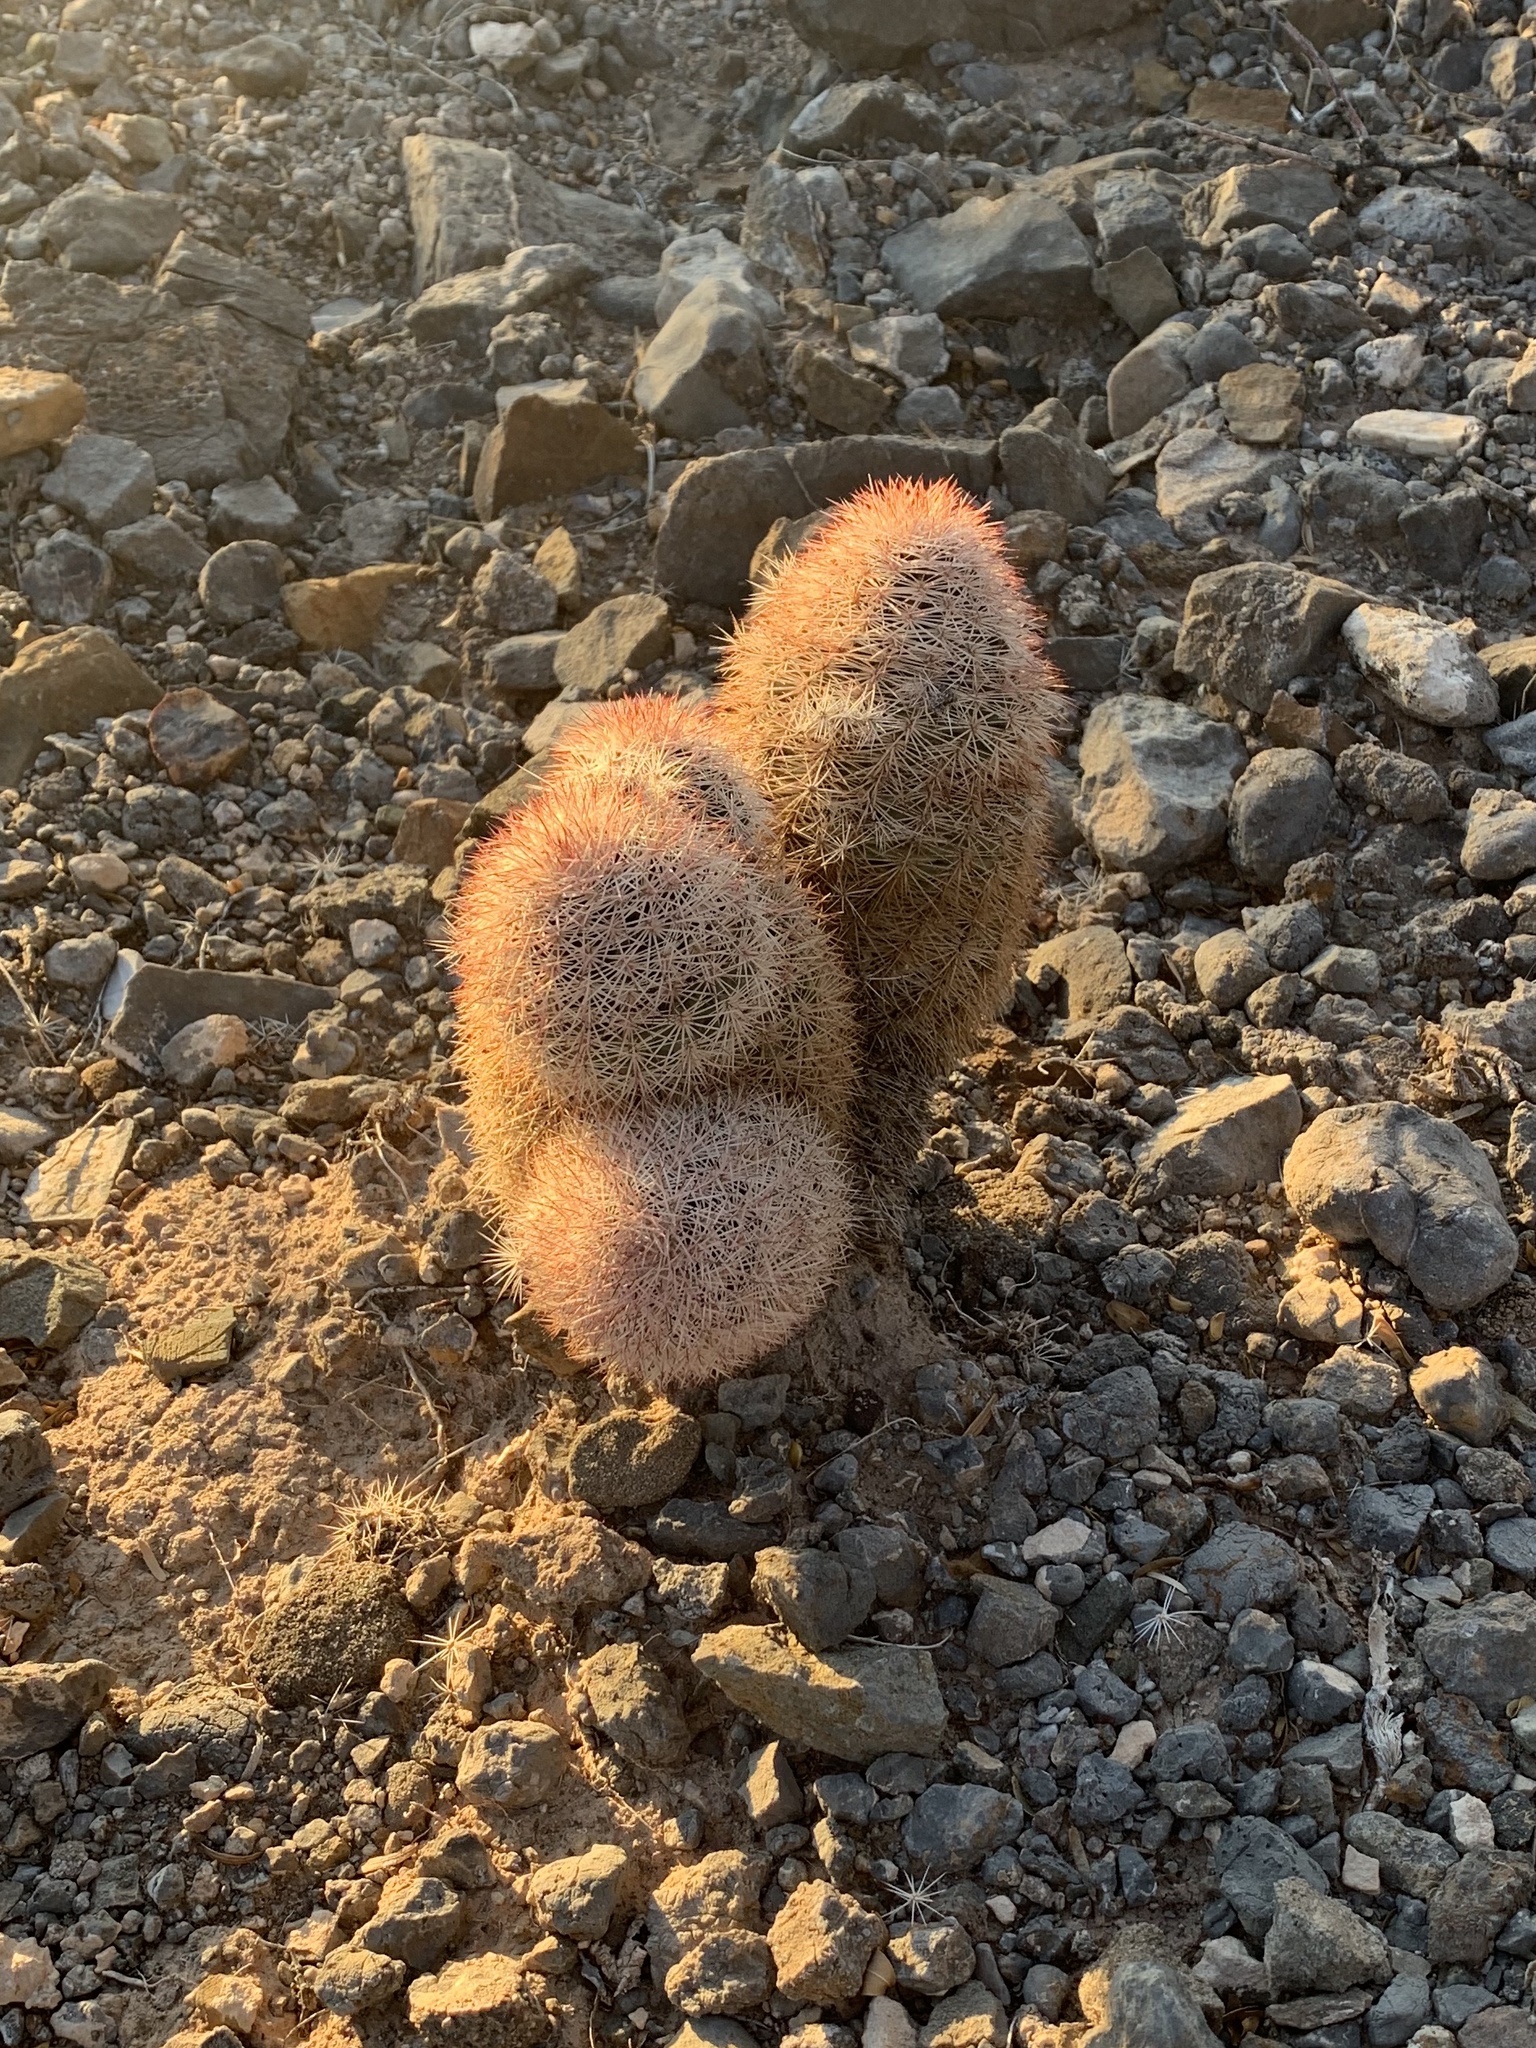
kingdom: Plantae
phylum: Tracheophyta
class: Magnoliopsida
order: Caryophyllales
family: Cactaceae
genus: Echinocereus
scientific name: Echinocereus dasyacanthus
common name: Spiny hedgehog cactus
